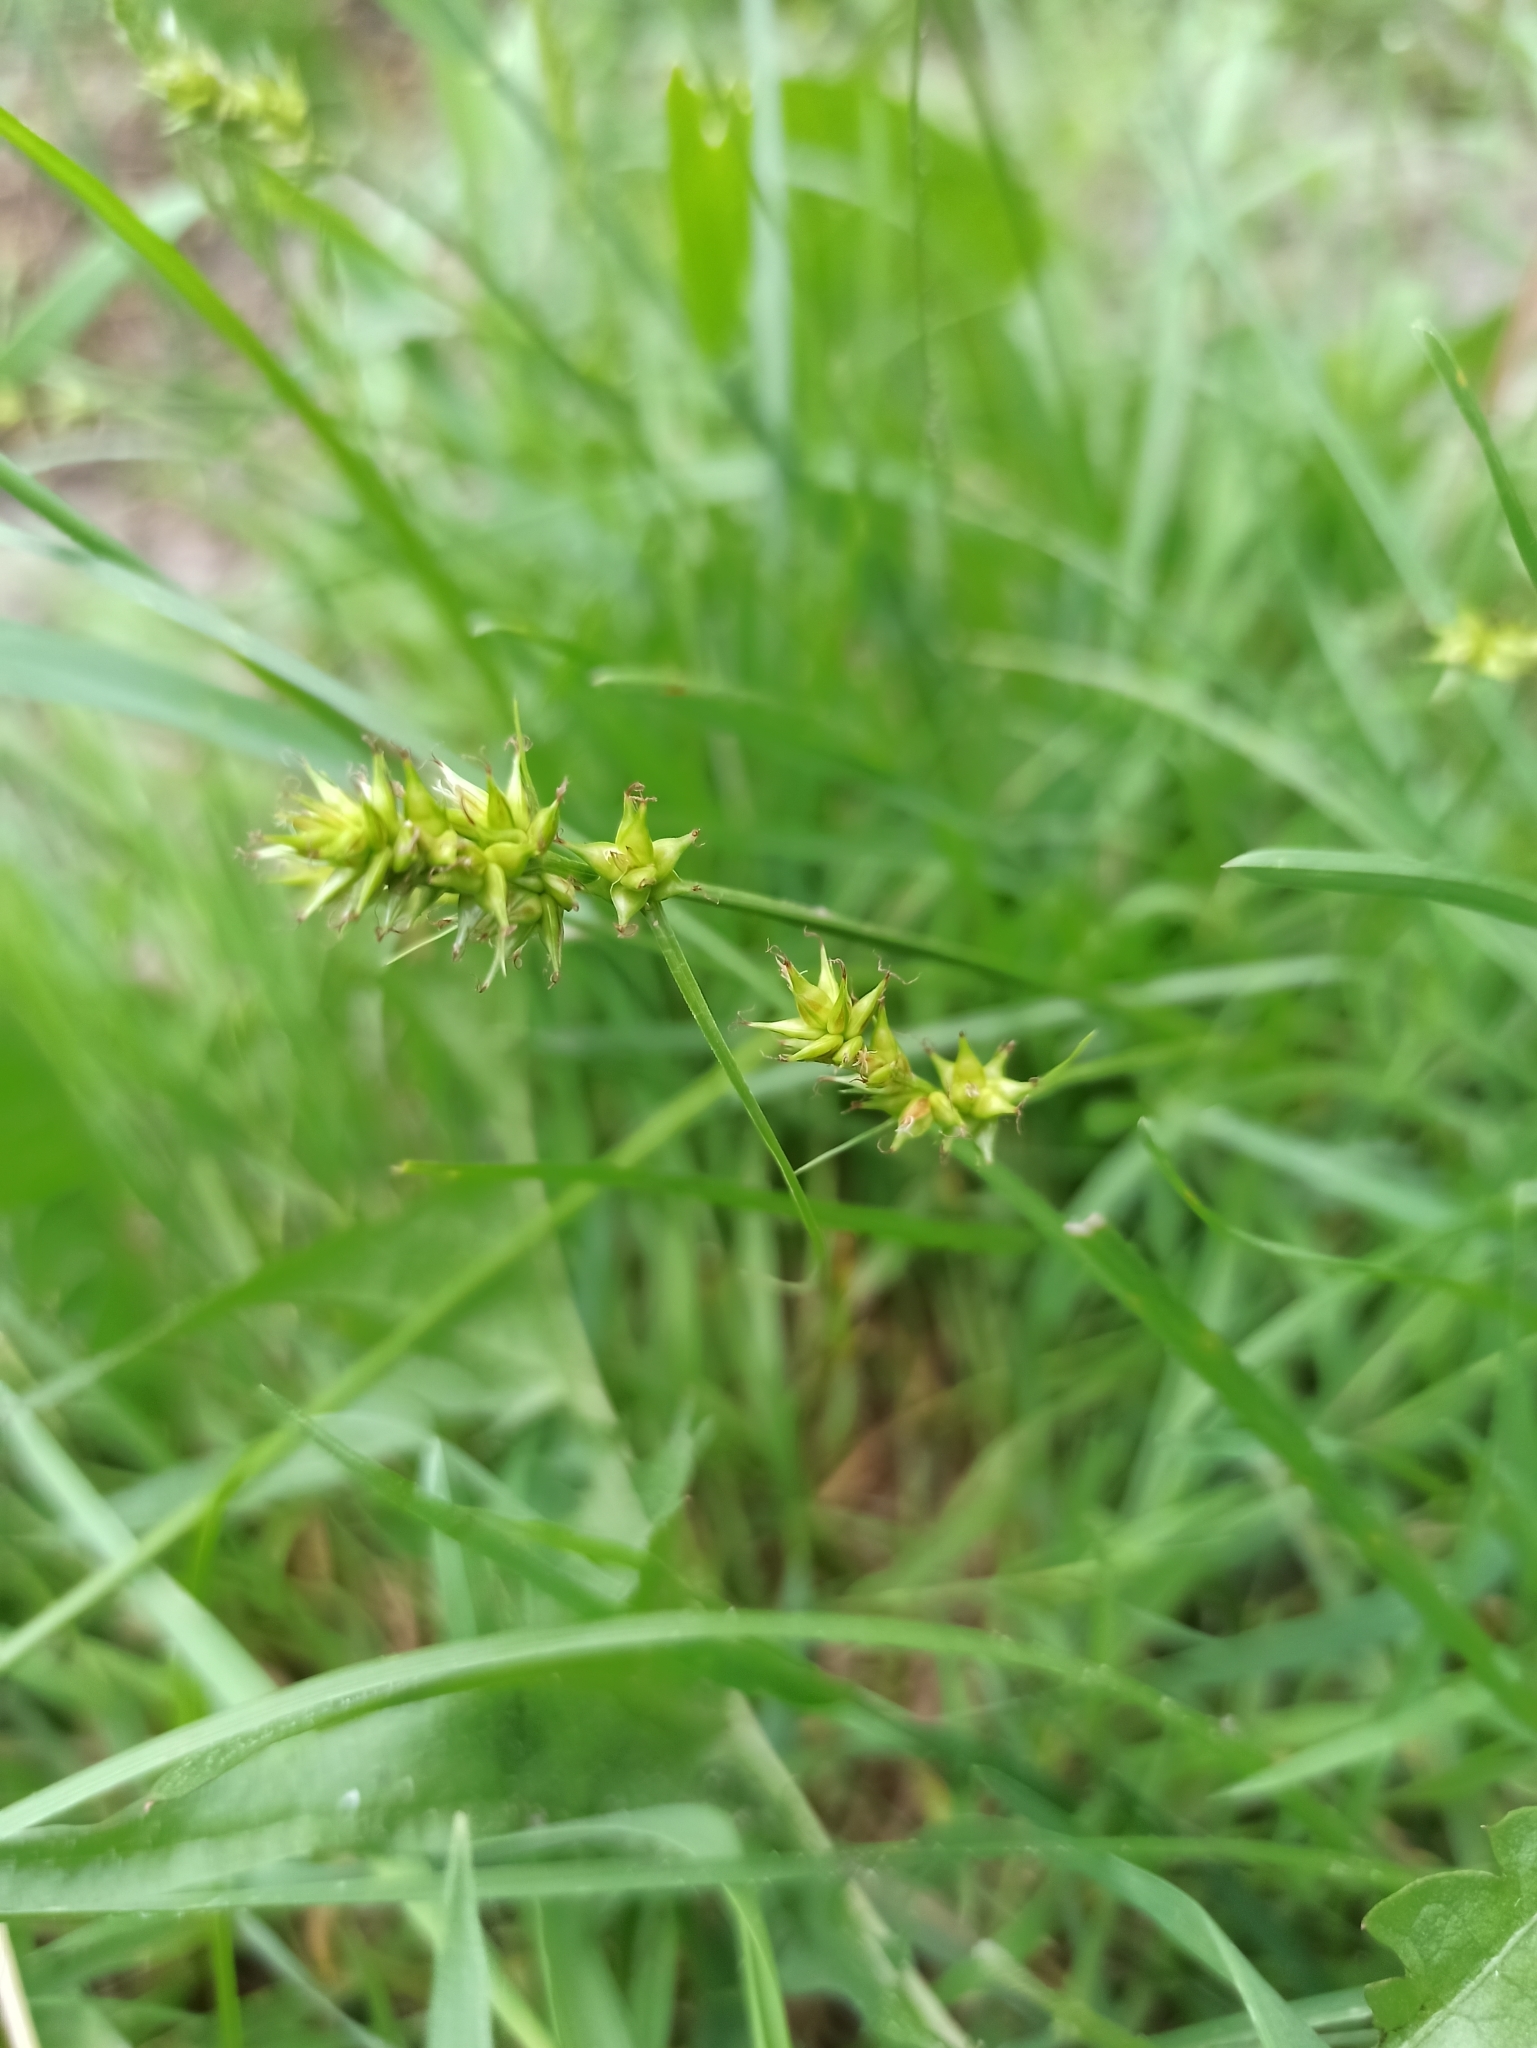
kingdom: Plantae
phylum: Tracheophyta
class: Liliopsida
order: Poales
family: Cyperaceae
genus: Carex
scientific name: Carex spicata
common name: Spiked sedge
